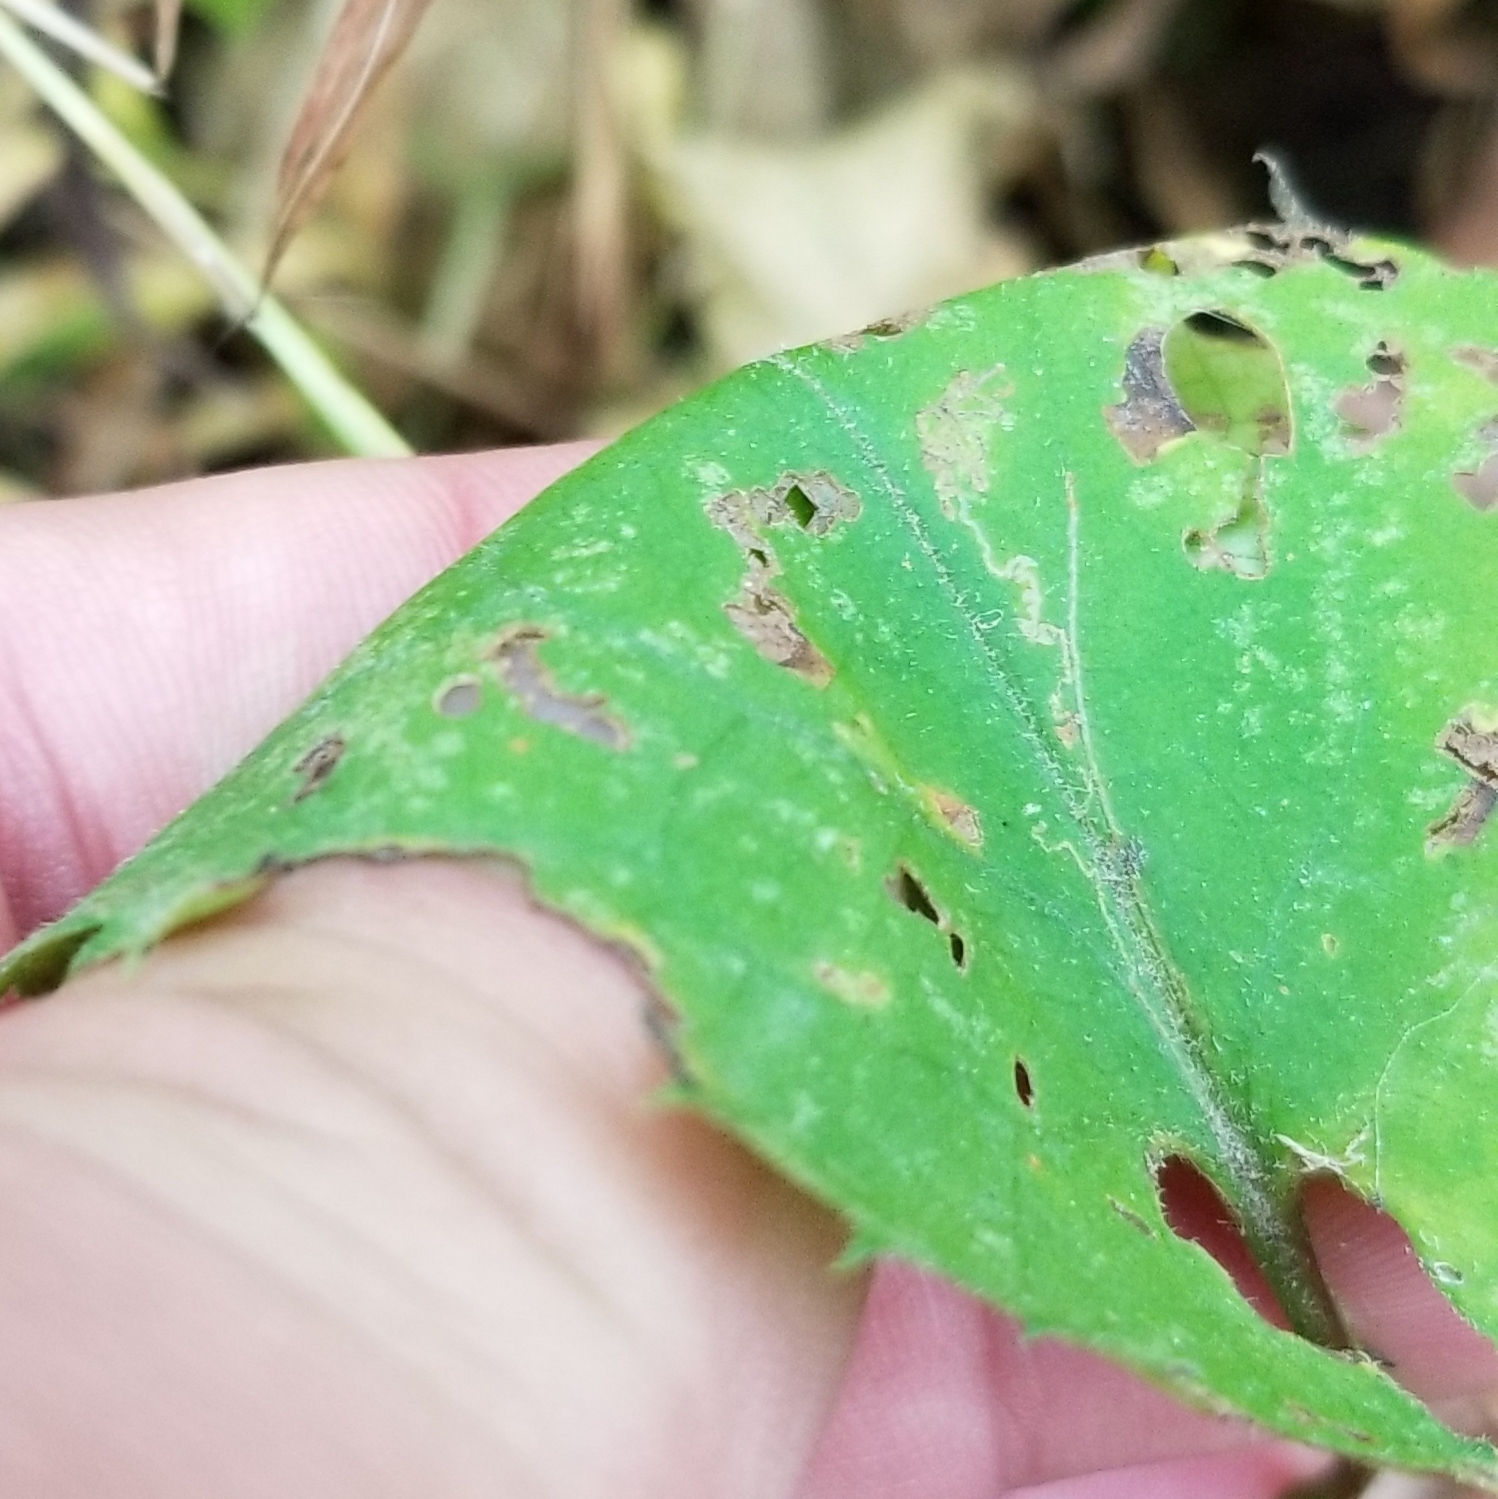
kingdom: Plantae
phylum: Tracheophyta
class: Magnoliopsida
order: Asterales
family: Asteraceae
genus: Symphyotrichum
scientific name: Symphyotrichum cordifolium
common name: Beeweed
